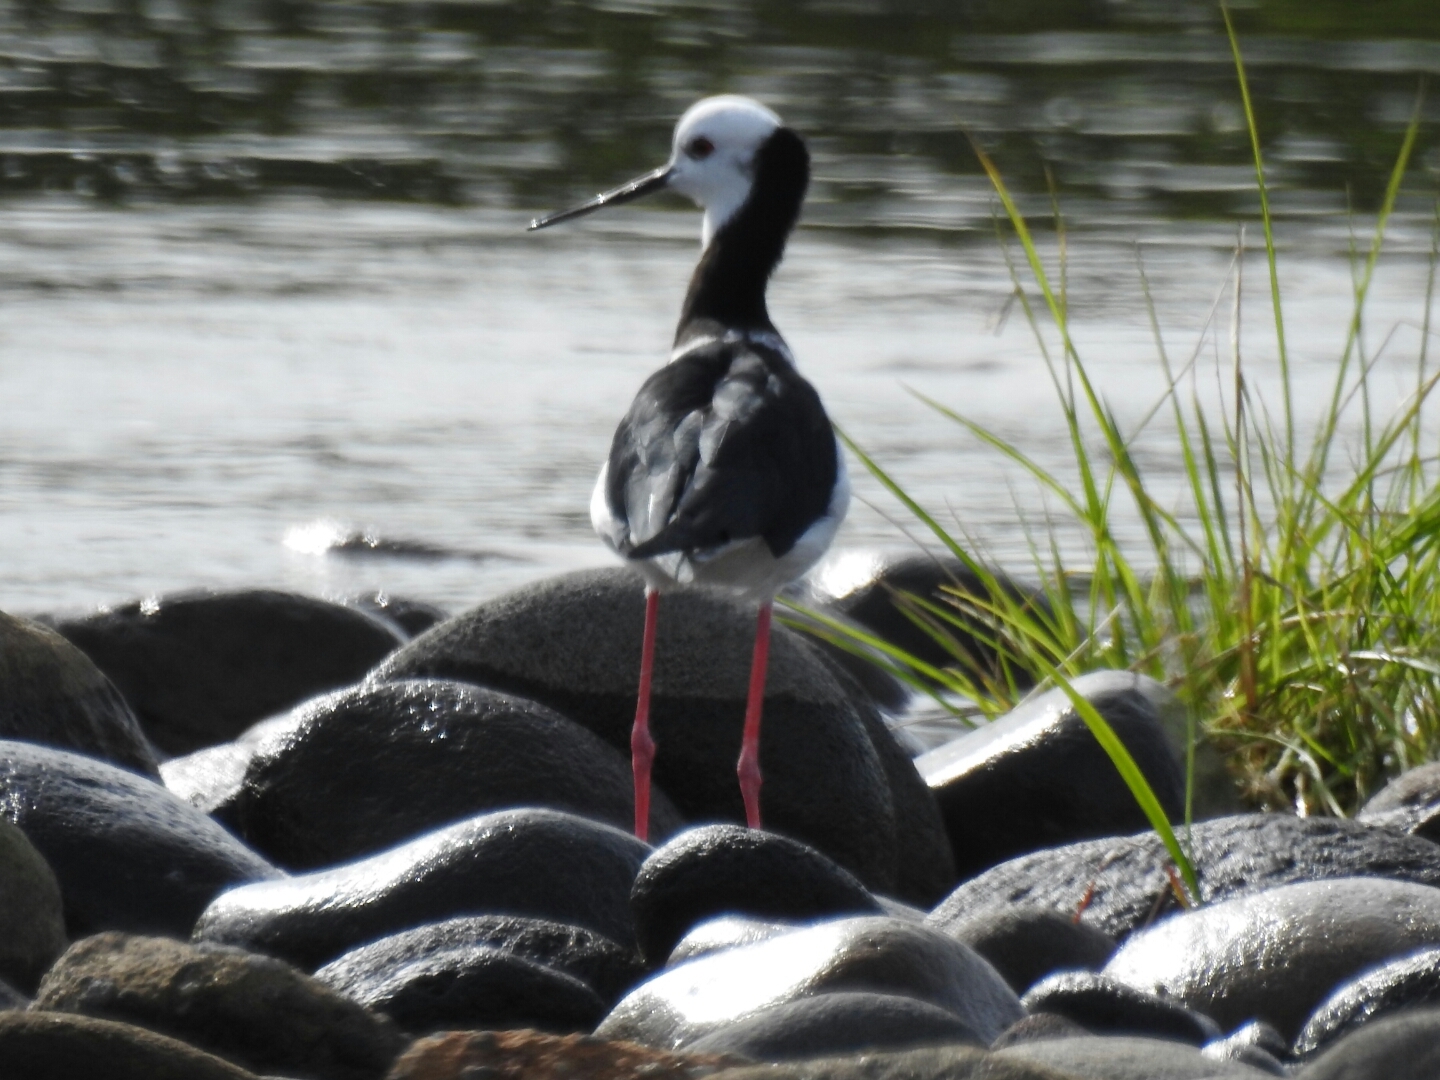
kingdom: Animalia
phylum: Chordata
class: Aves
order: Charadriiformes
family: Recurvirostridae
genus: Himantopus
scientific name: Himantopus leucocephalus
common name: White-headed stilt
